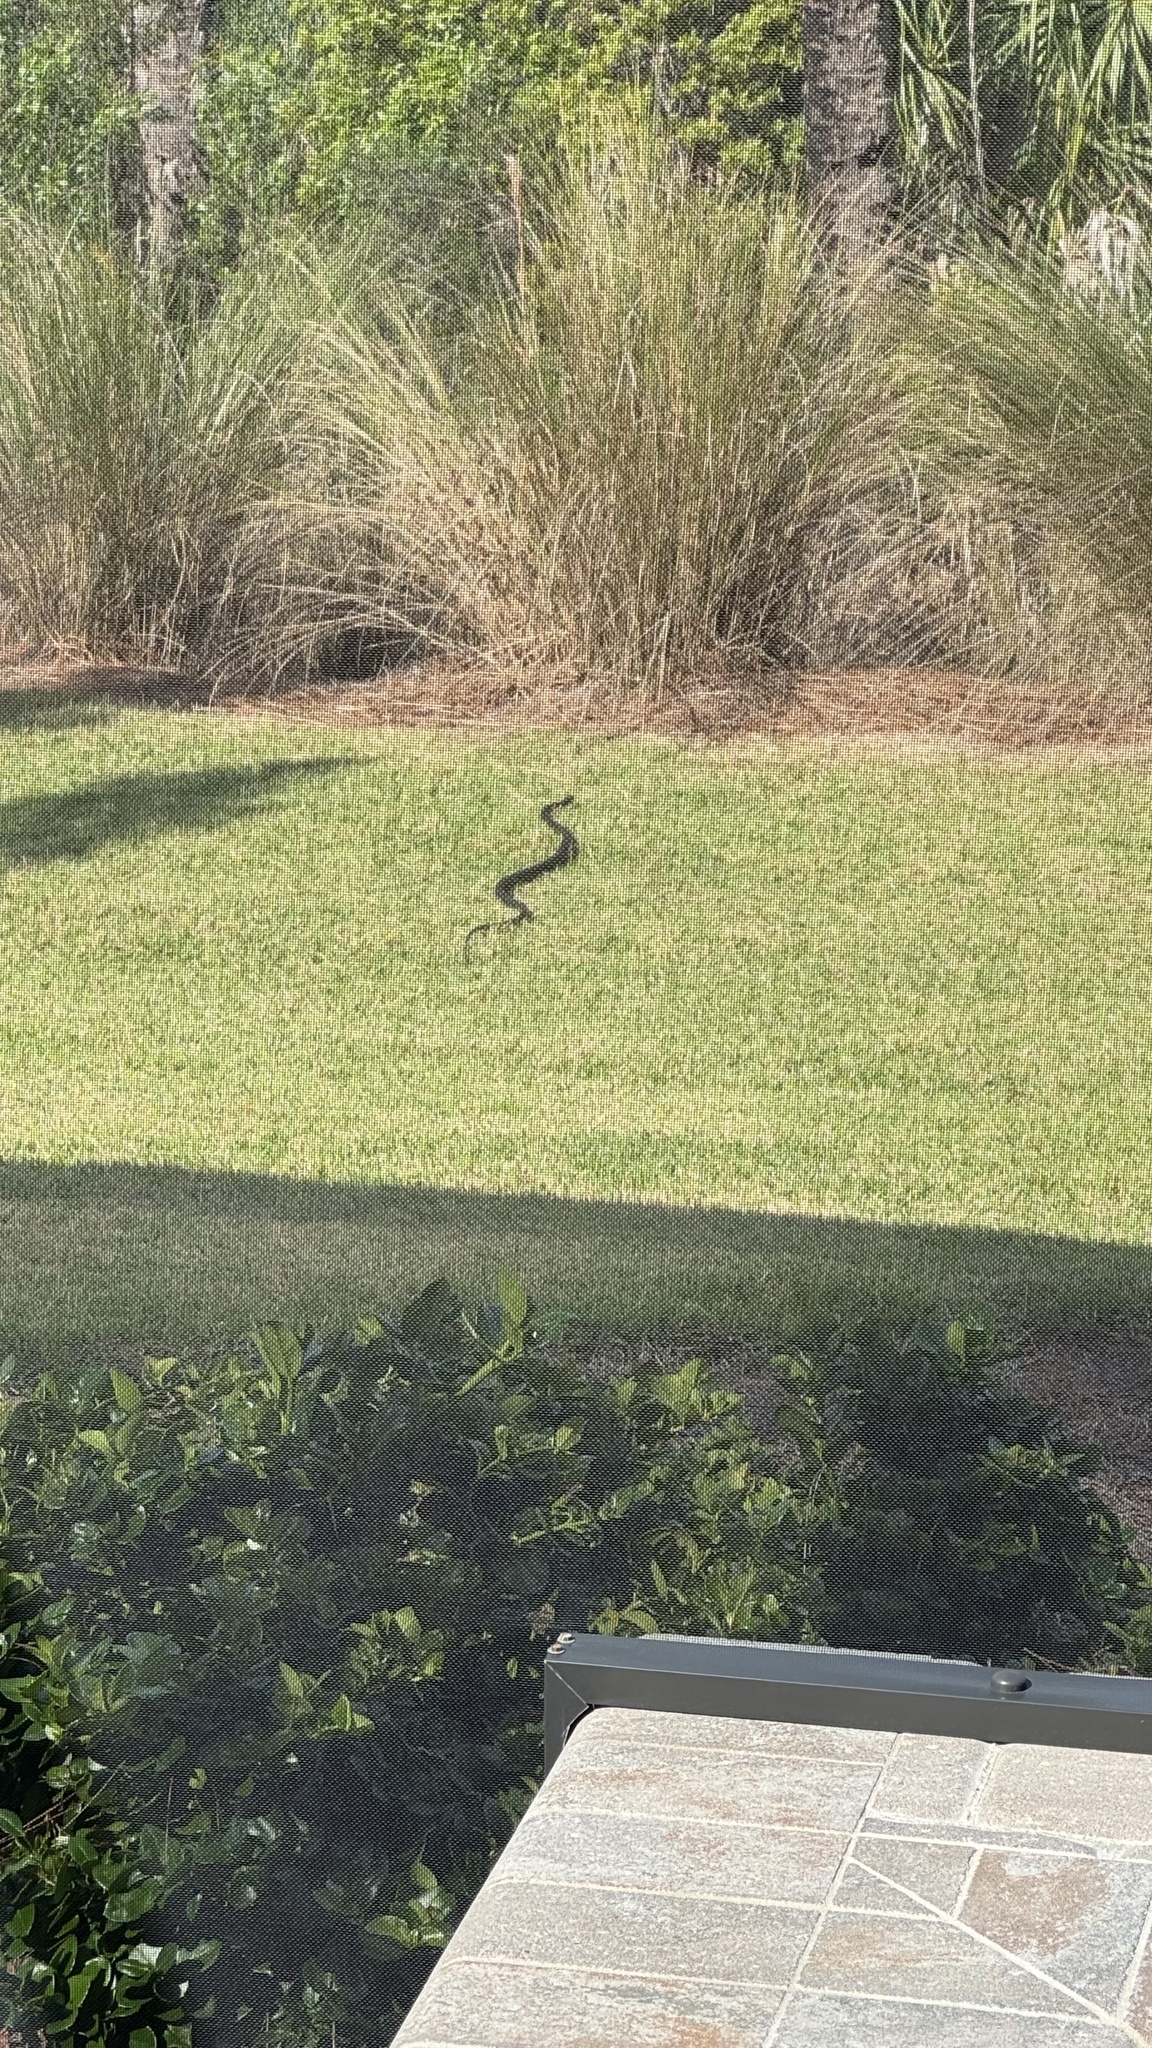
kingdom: Animalia
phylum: Chordata
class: Squamata
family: Colubridae
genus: Coluber
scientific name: Coluber constrictor
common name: Eastern racer
